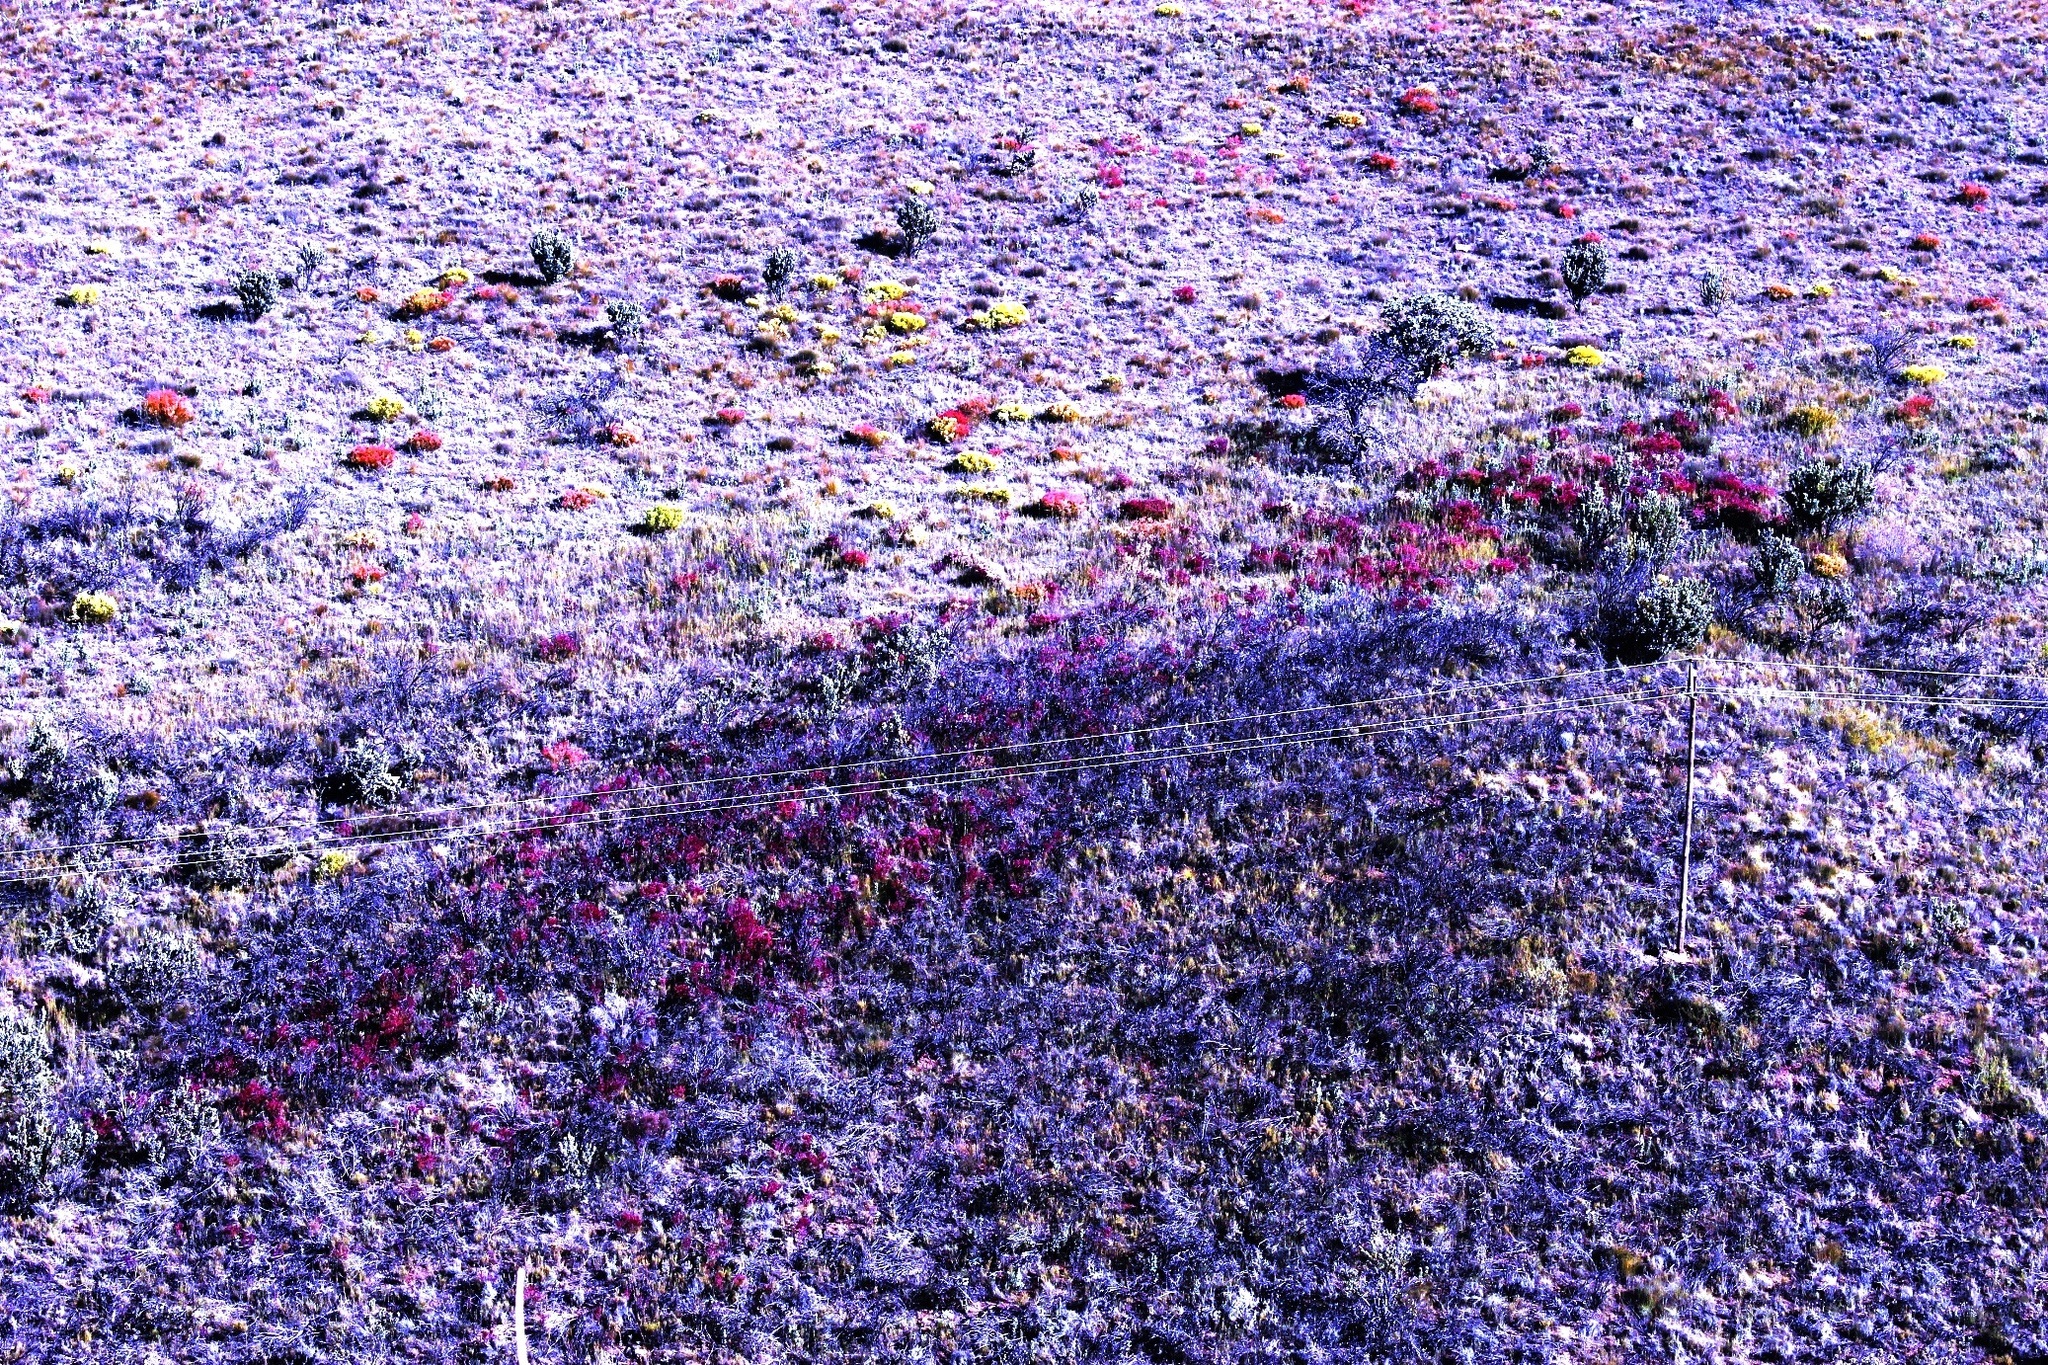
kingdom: Plantae
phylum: Tracheophyta
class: Magnoliopsida
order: Proteales
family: Proteaceae
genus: Leucadendron
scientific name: Leucadendron rubrum
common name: Spinning top
